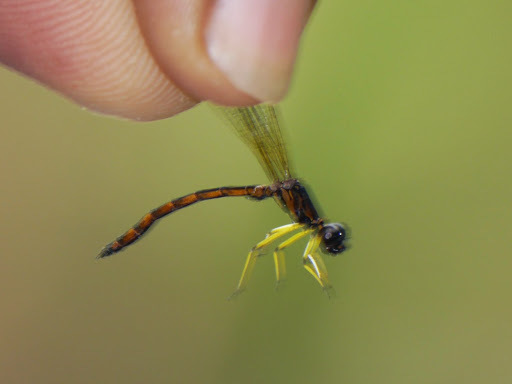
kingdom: Animalia
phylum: Arthropoda
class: Insecta
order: Odonata
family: Chlorocyphidae
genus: Platycypha
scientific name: Platycypha picta
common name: Petite jewel
